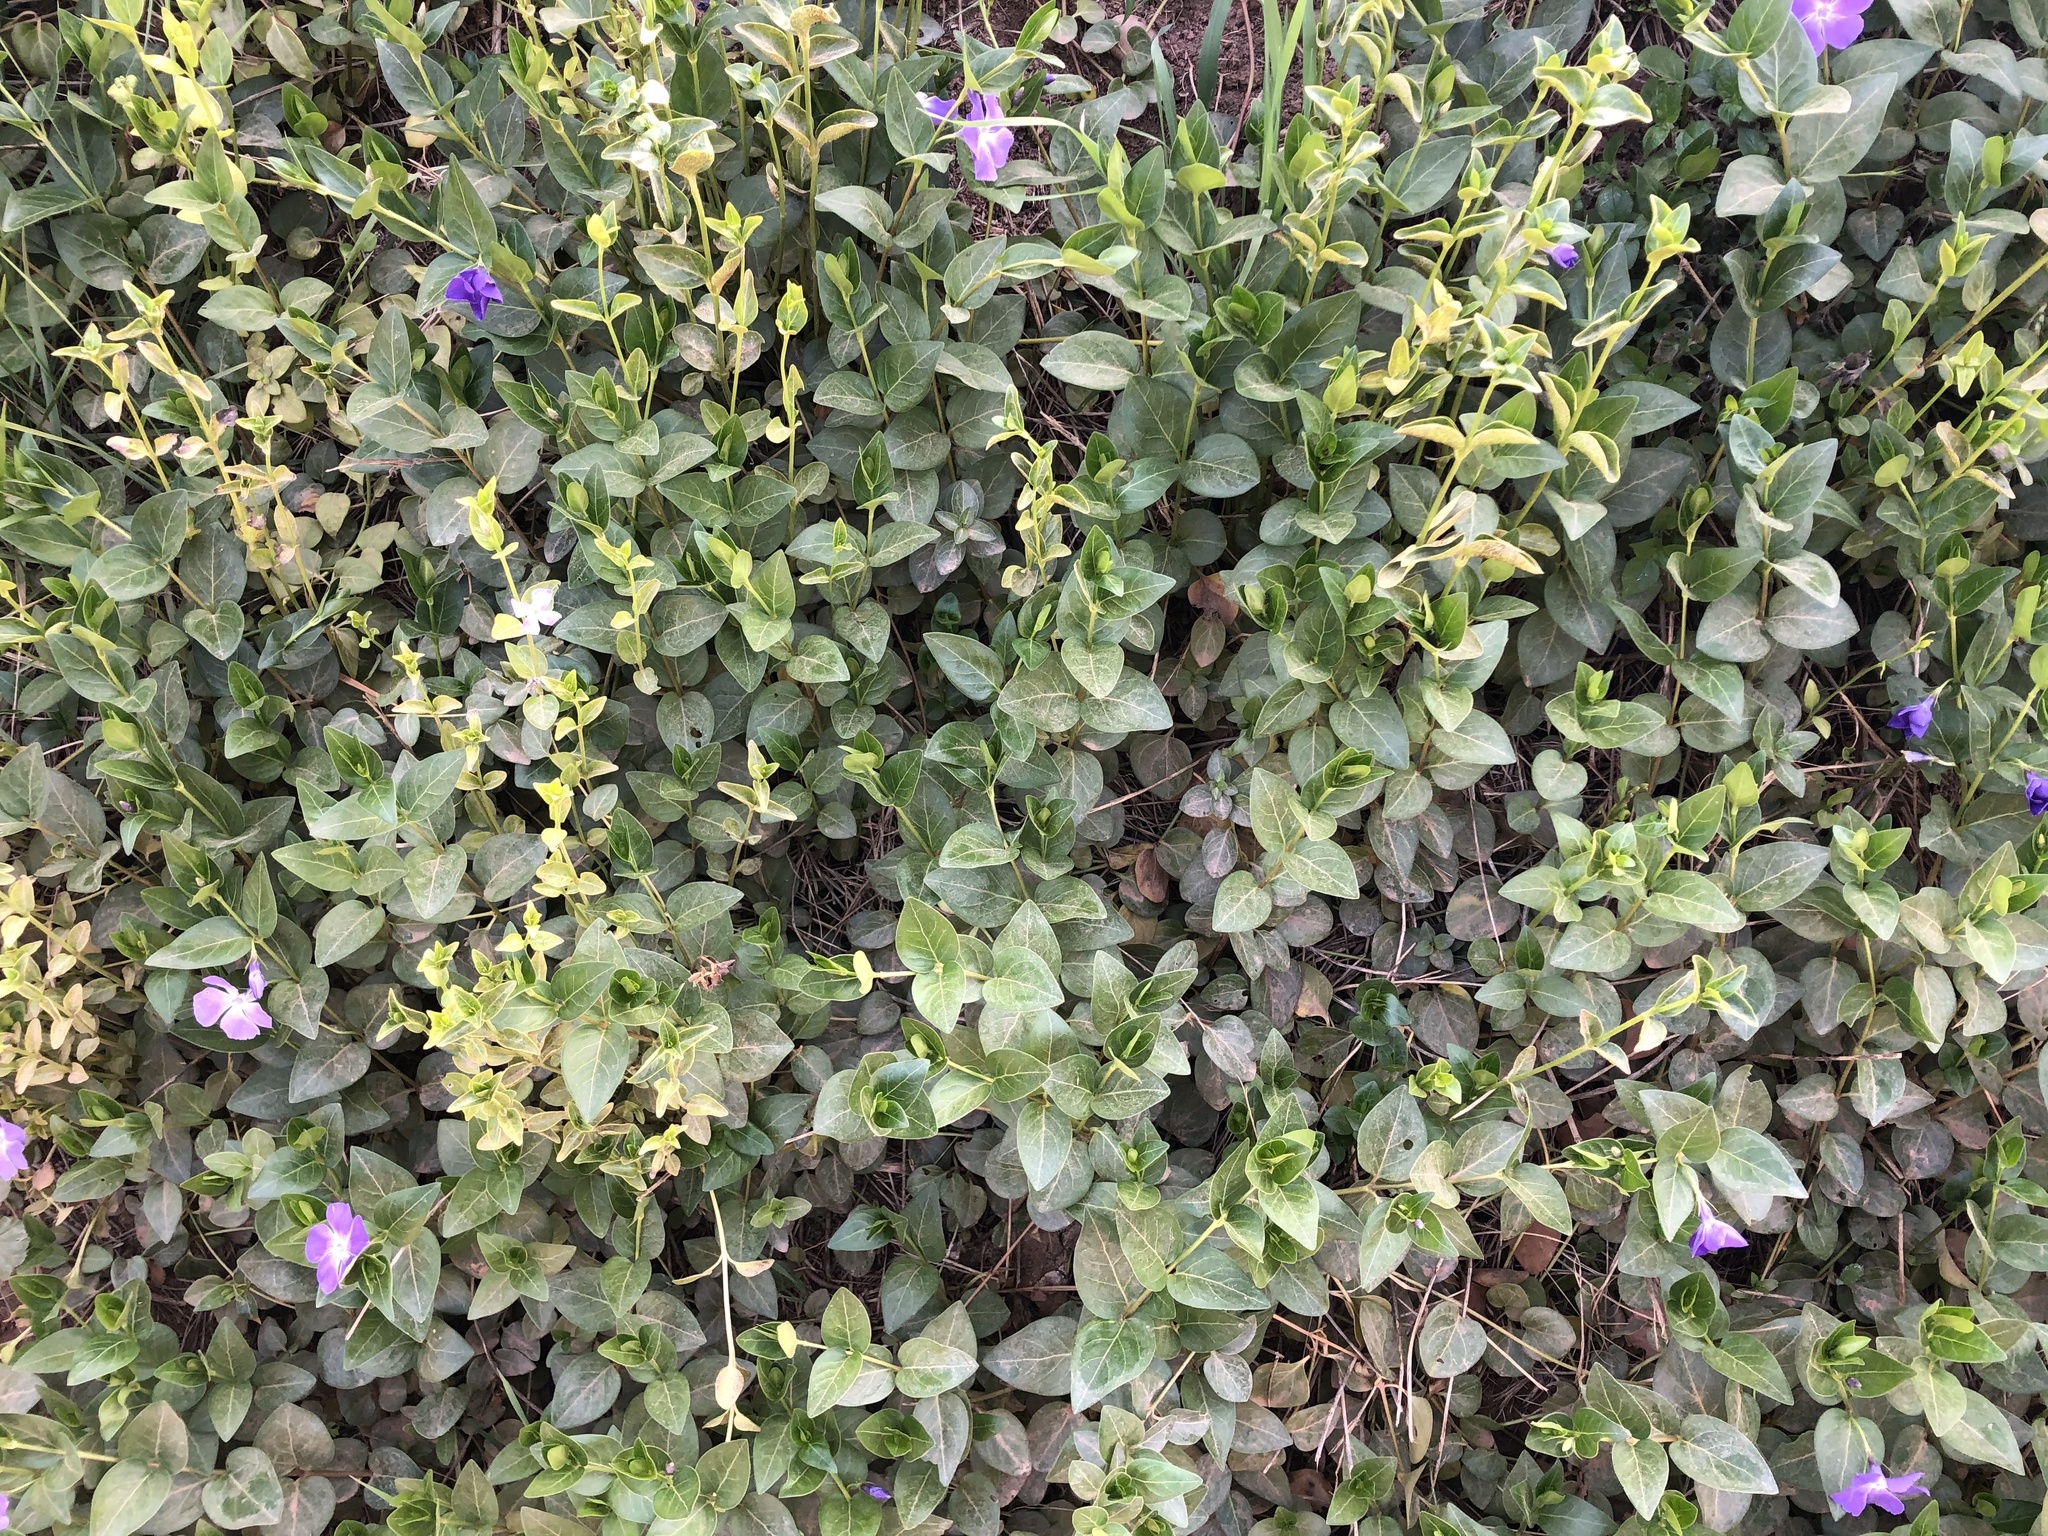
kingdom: Plantae
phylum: Tracheophyta
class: Magnoliopsida
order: Gentianales
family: Apocynaceae
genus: Vinca
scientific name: Vinca major
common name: Greater periwinkle
